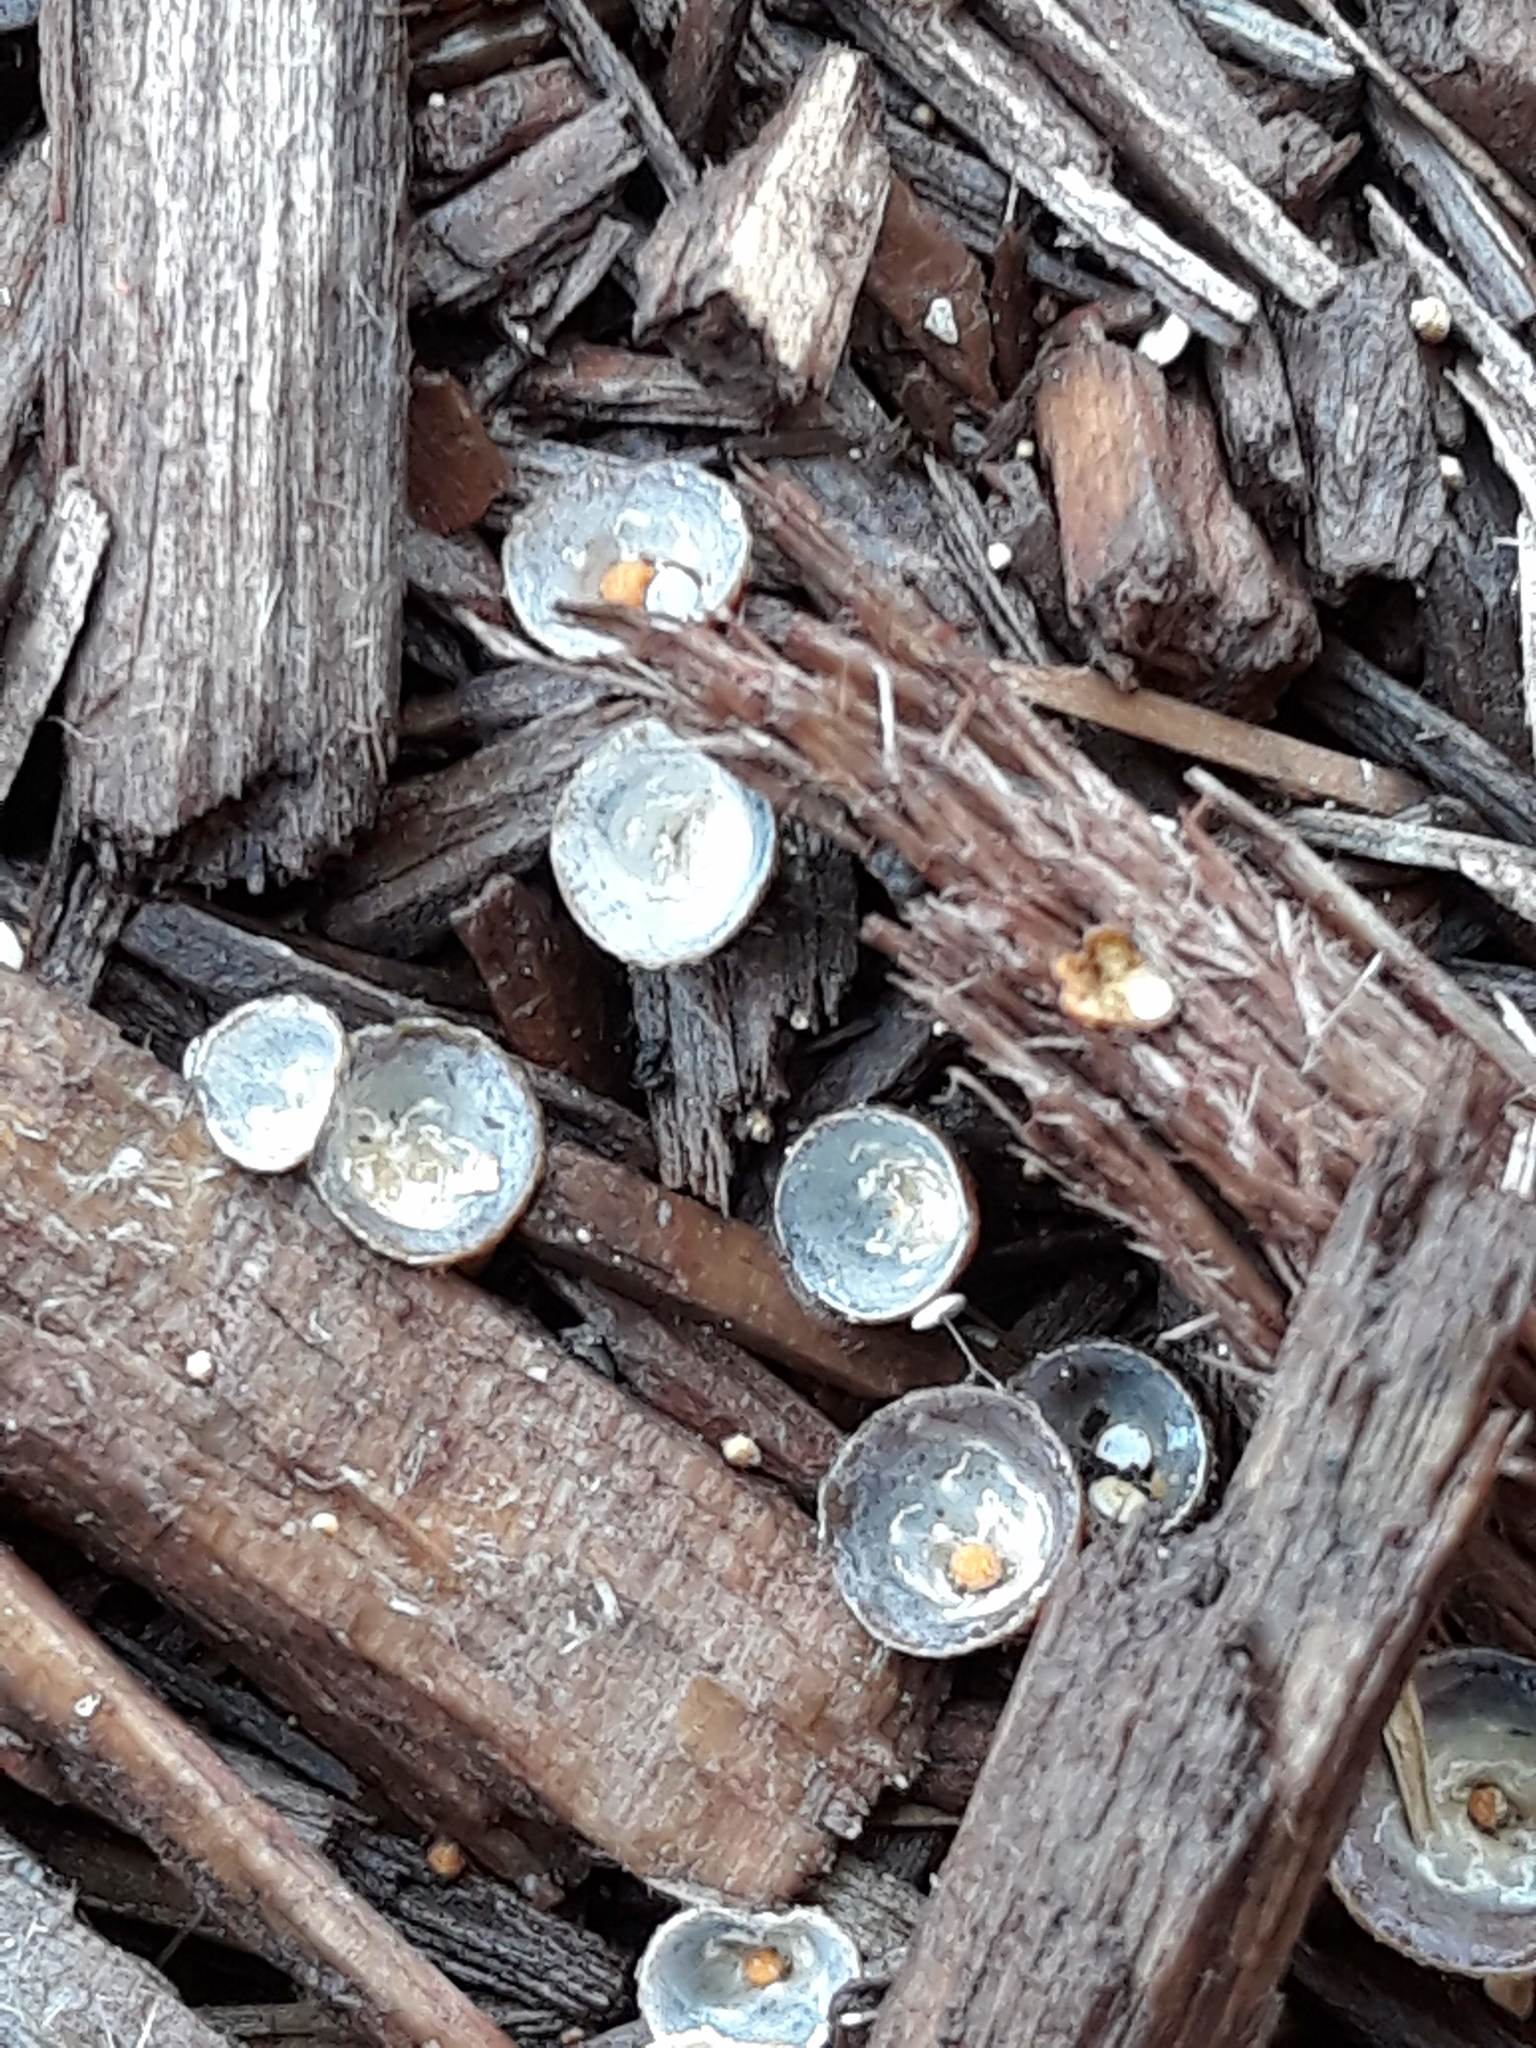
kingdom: Fungi
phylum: Basidiomycota
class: Agaricomycetes
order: Agaricales
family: Nidulariaceae
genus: Crucibulum
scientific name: Crucibulum laeve
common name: Common bird's nest
